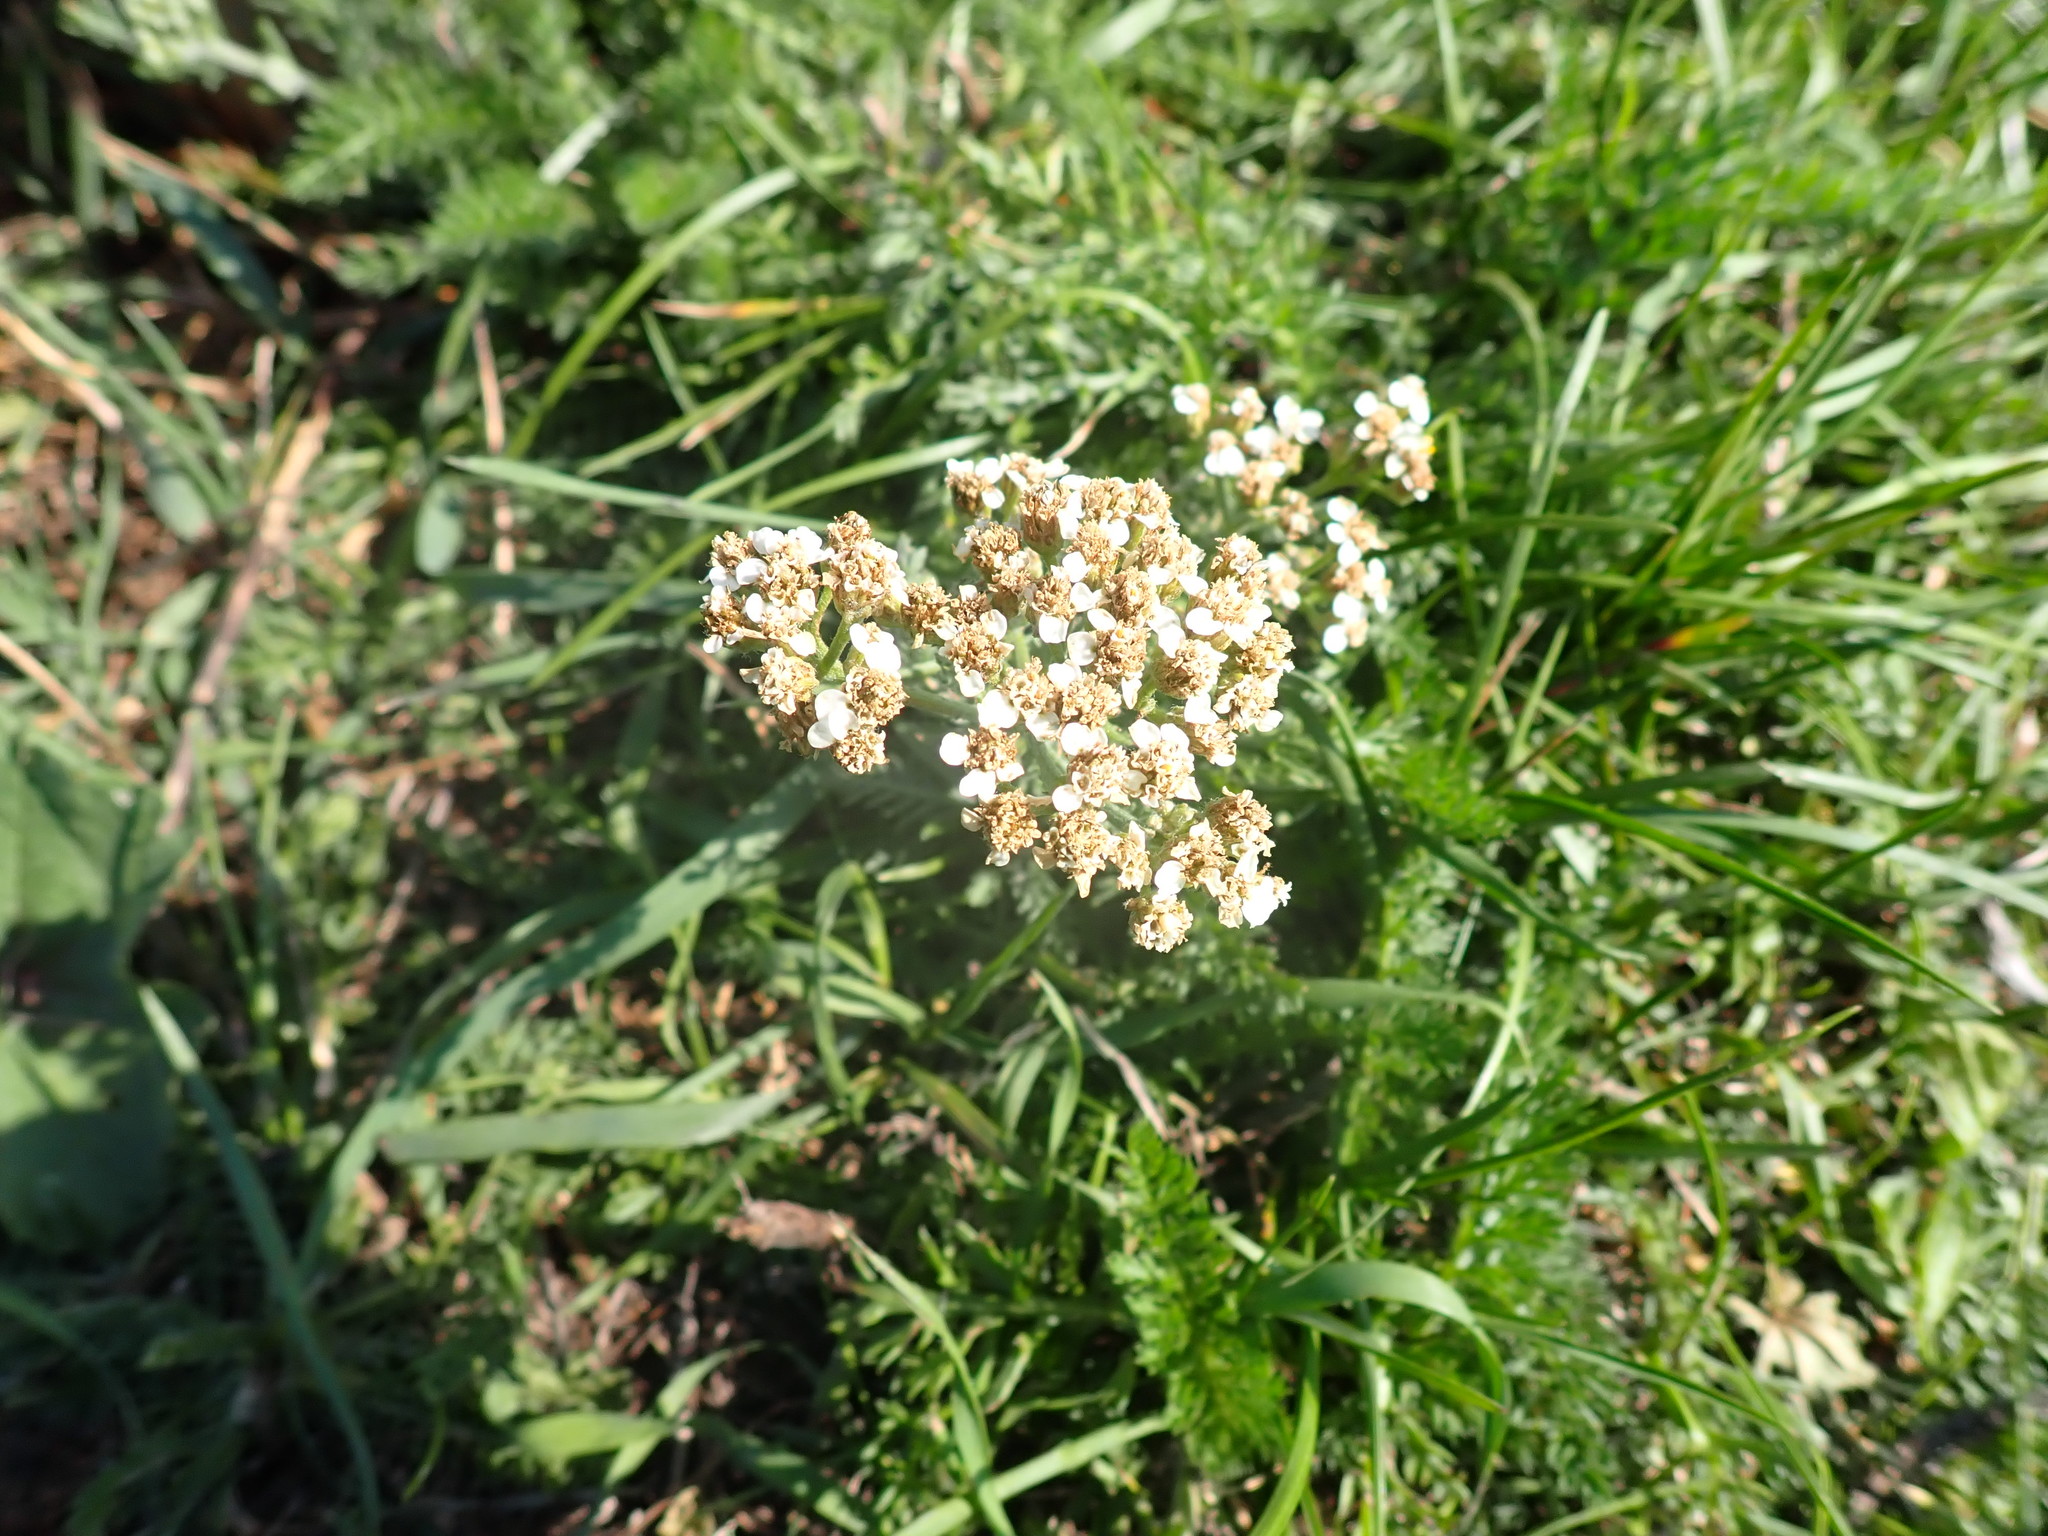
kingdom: Plantae
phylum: Tracheophyta
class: Magnoliopsida
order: Asterales
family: Asteraceae
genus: Achillea
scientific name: Achillea millefolium
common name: Yarrow
